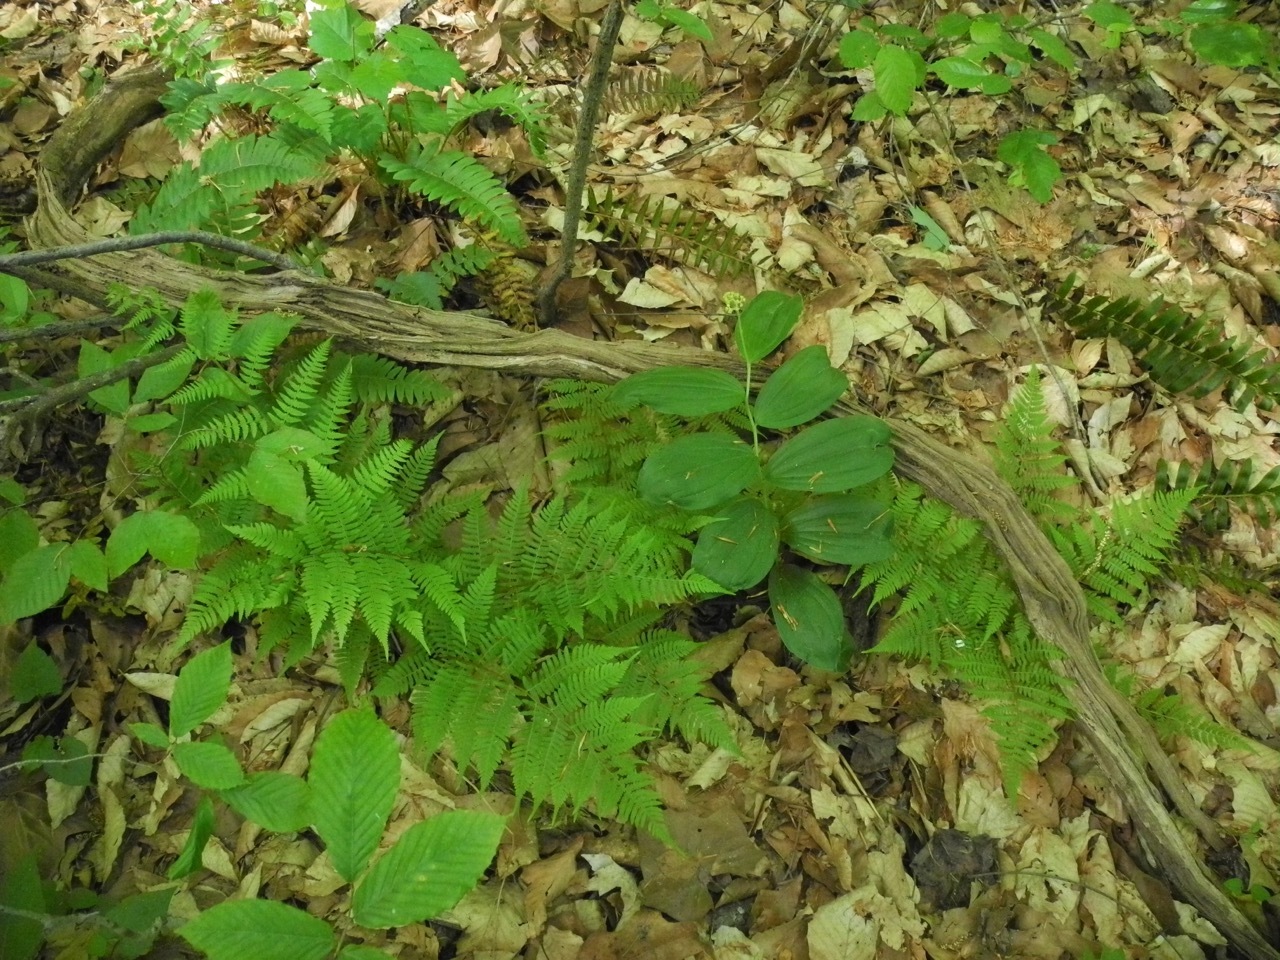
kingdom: Plantae
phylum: Tracheophyta
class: Polypodiopsida
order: Polypodiales
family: Athyriaceae
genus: Athyrium
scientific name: Athyrium asplenioides
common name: Southern lady fern
